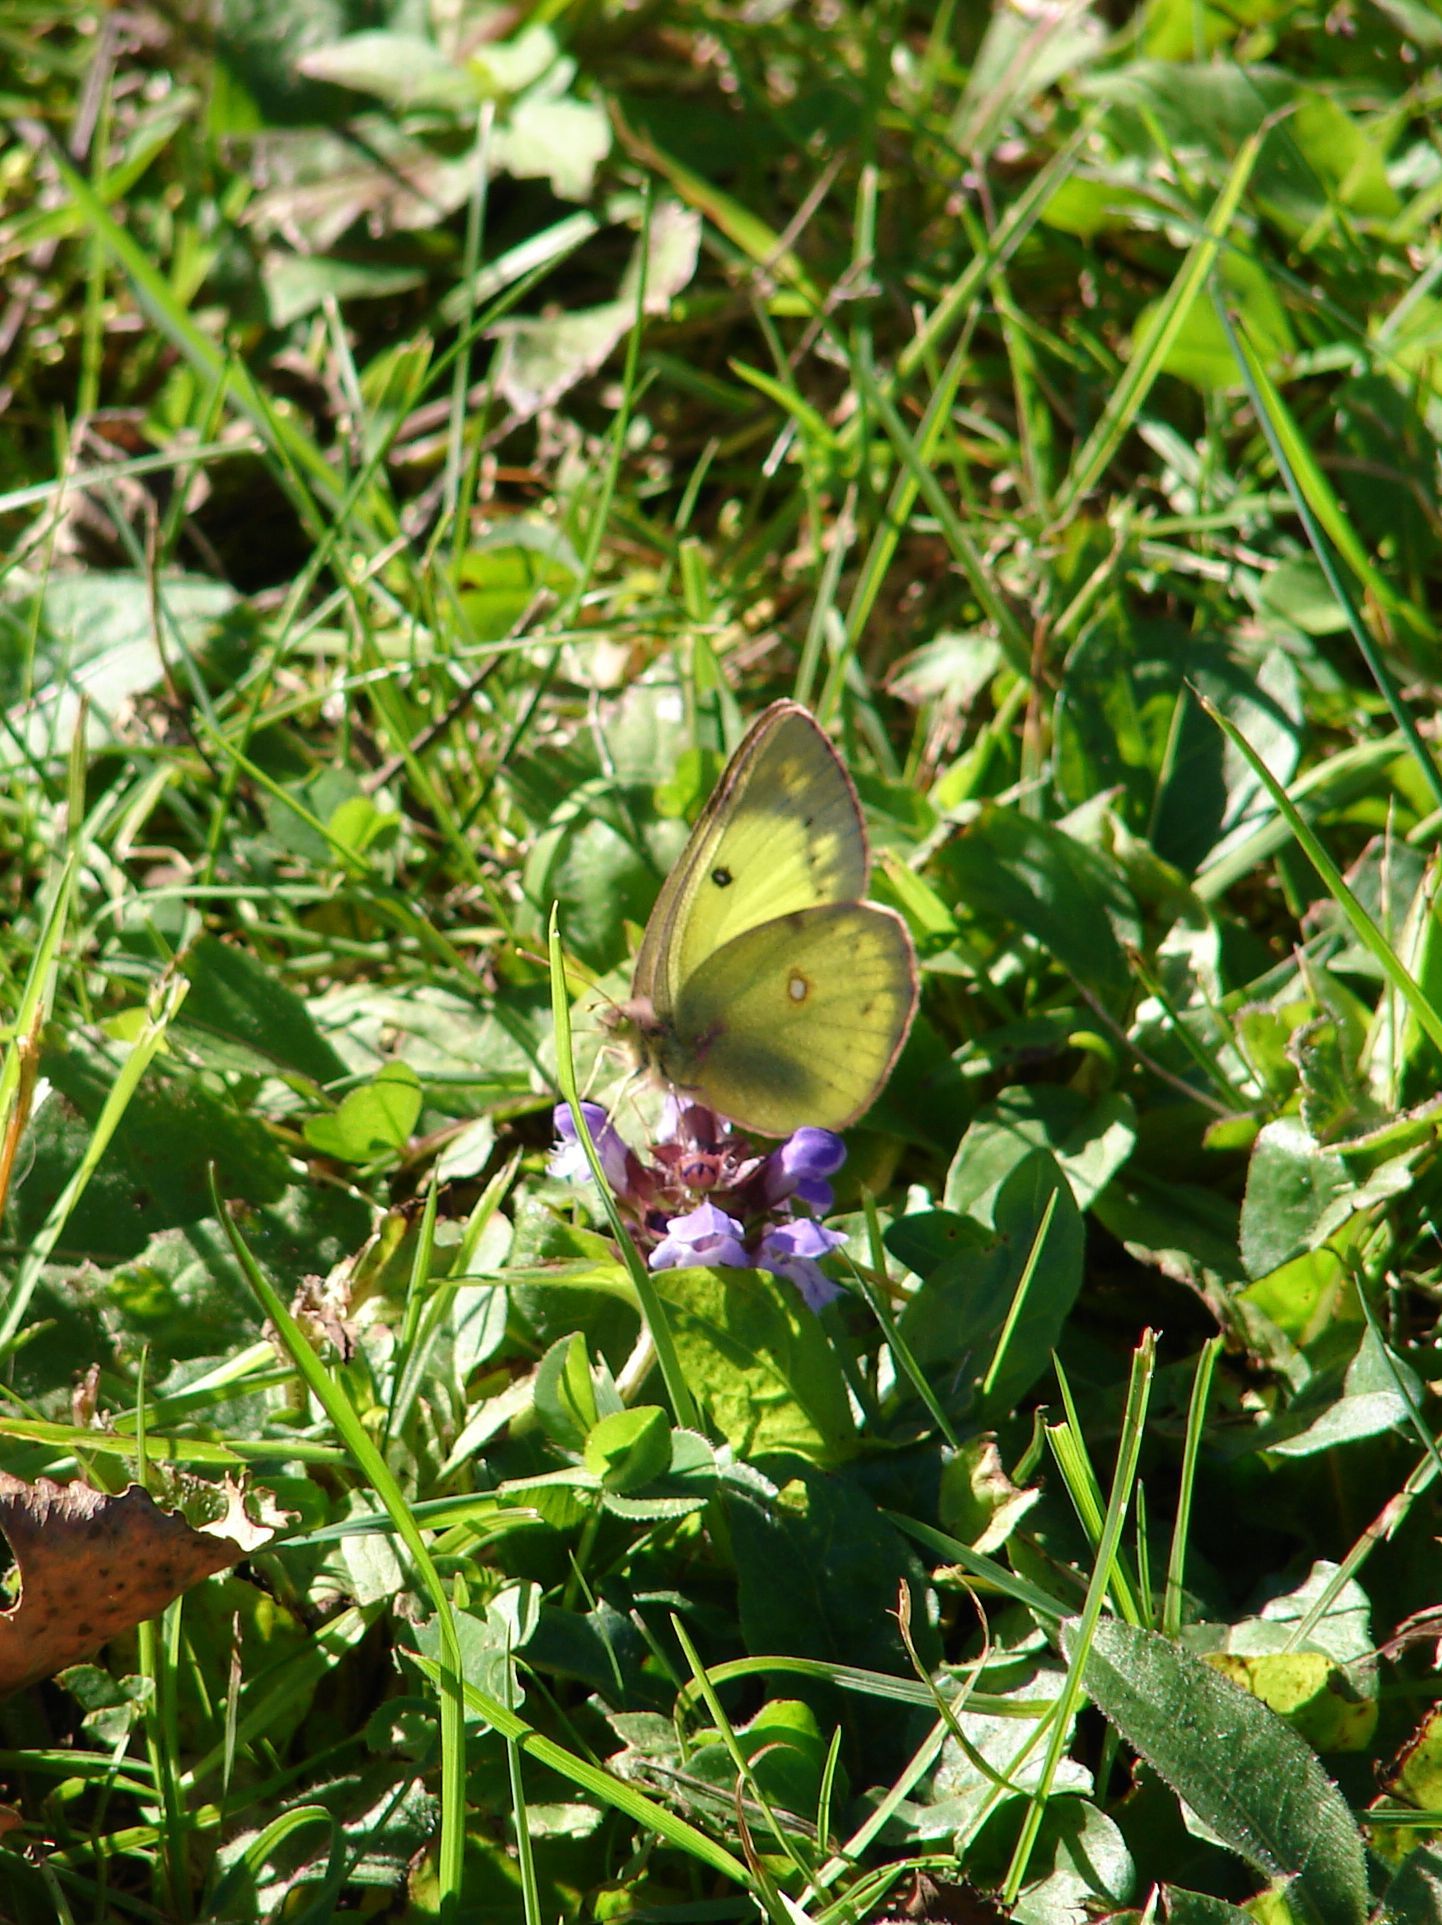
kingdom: Animalia
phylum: Arthropoda
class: Insecta
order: Lepidoptera
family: Pieridae
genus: Colias
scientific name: Colias philodice
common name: Clouded sulphur
